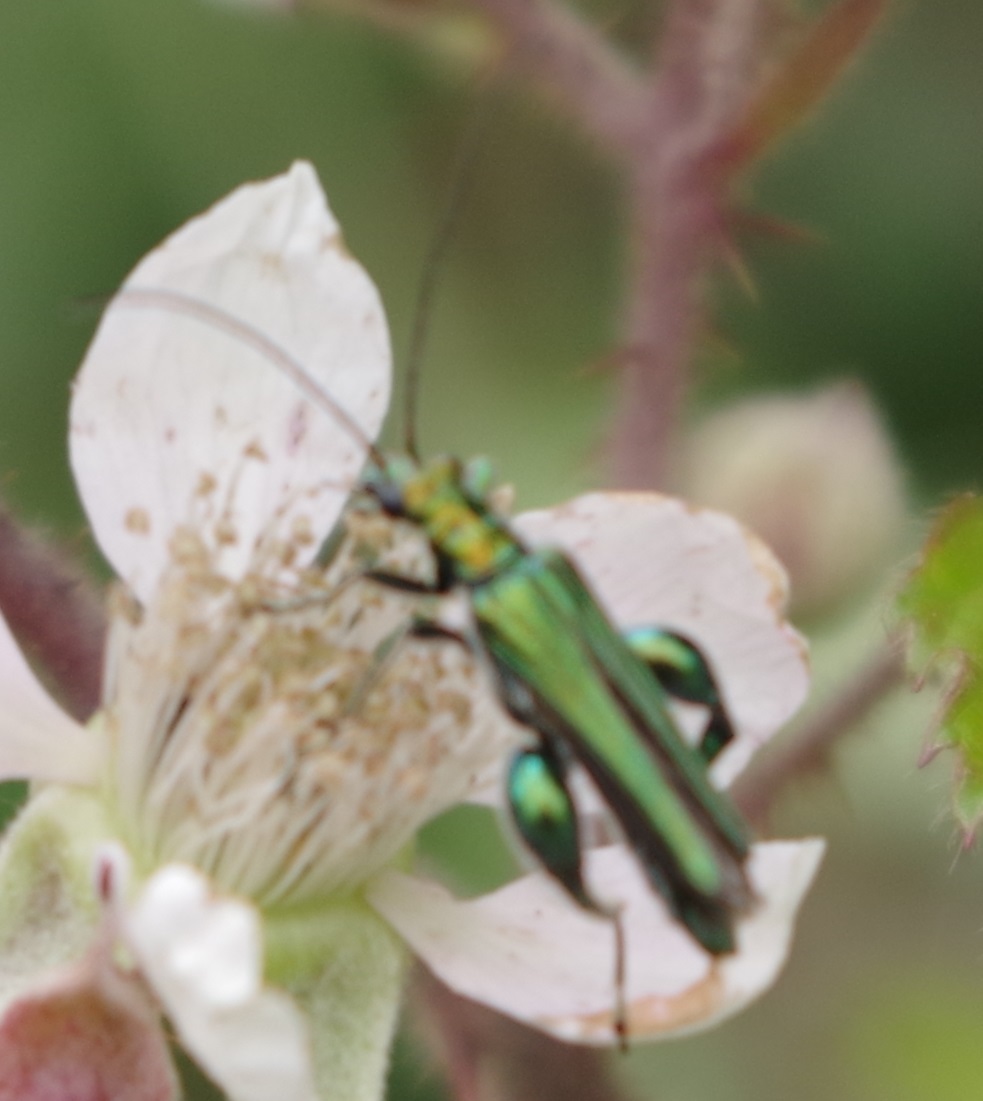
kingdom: Animalia
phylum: Arthropoda
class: Insecta
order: Coleoptera
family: Oedemeridae
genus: Oedemera
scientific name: Oedemera nobilis
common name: Swollen-thighed beetle
